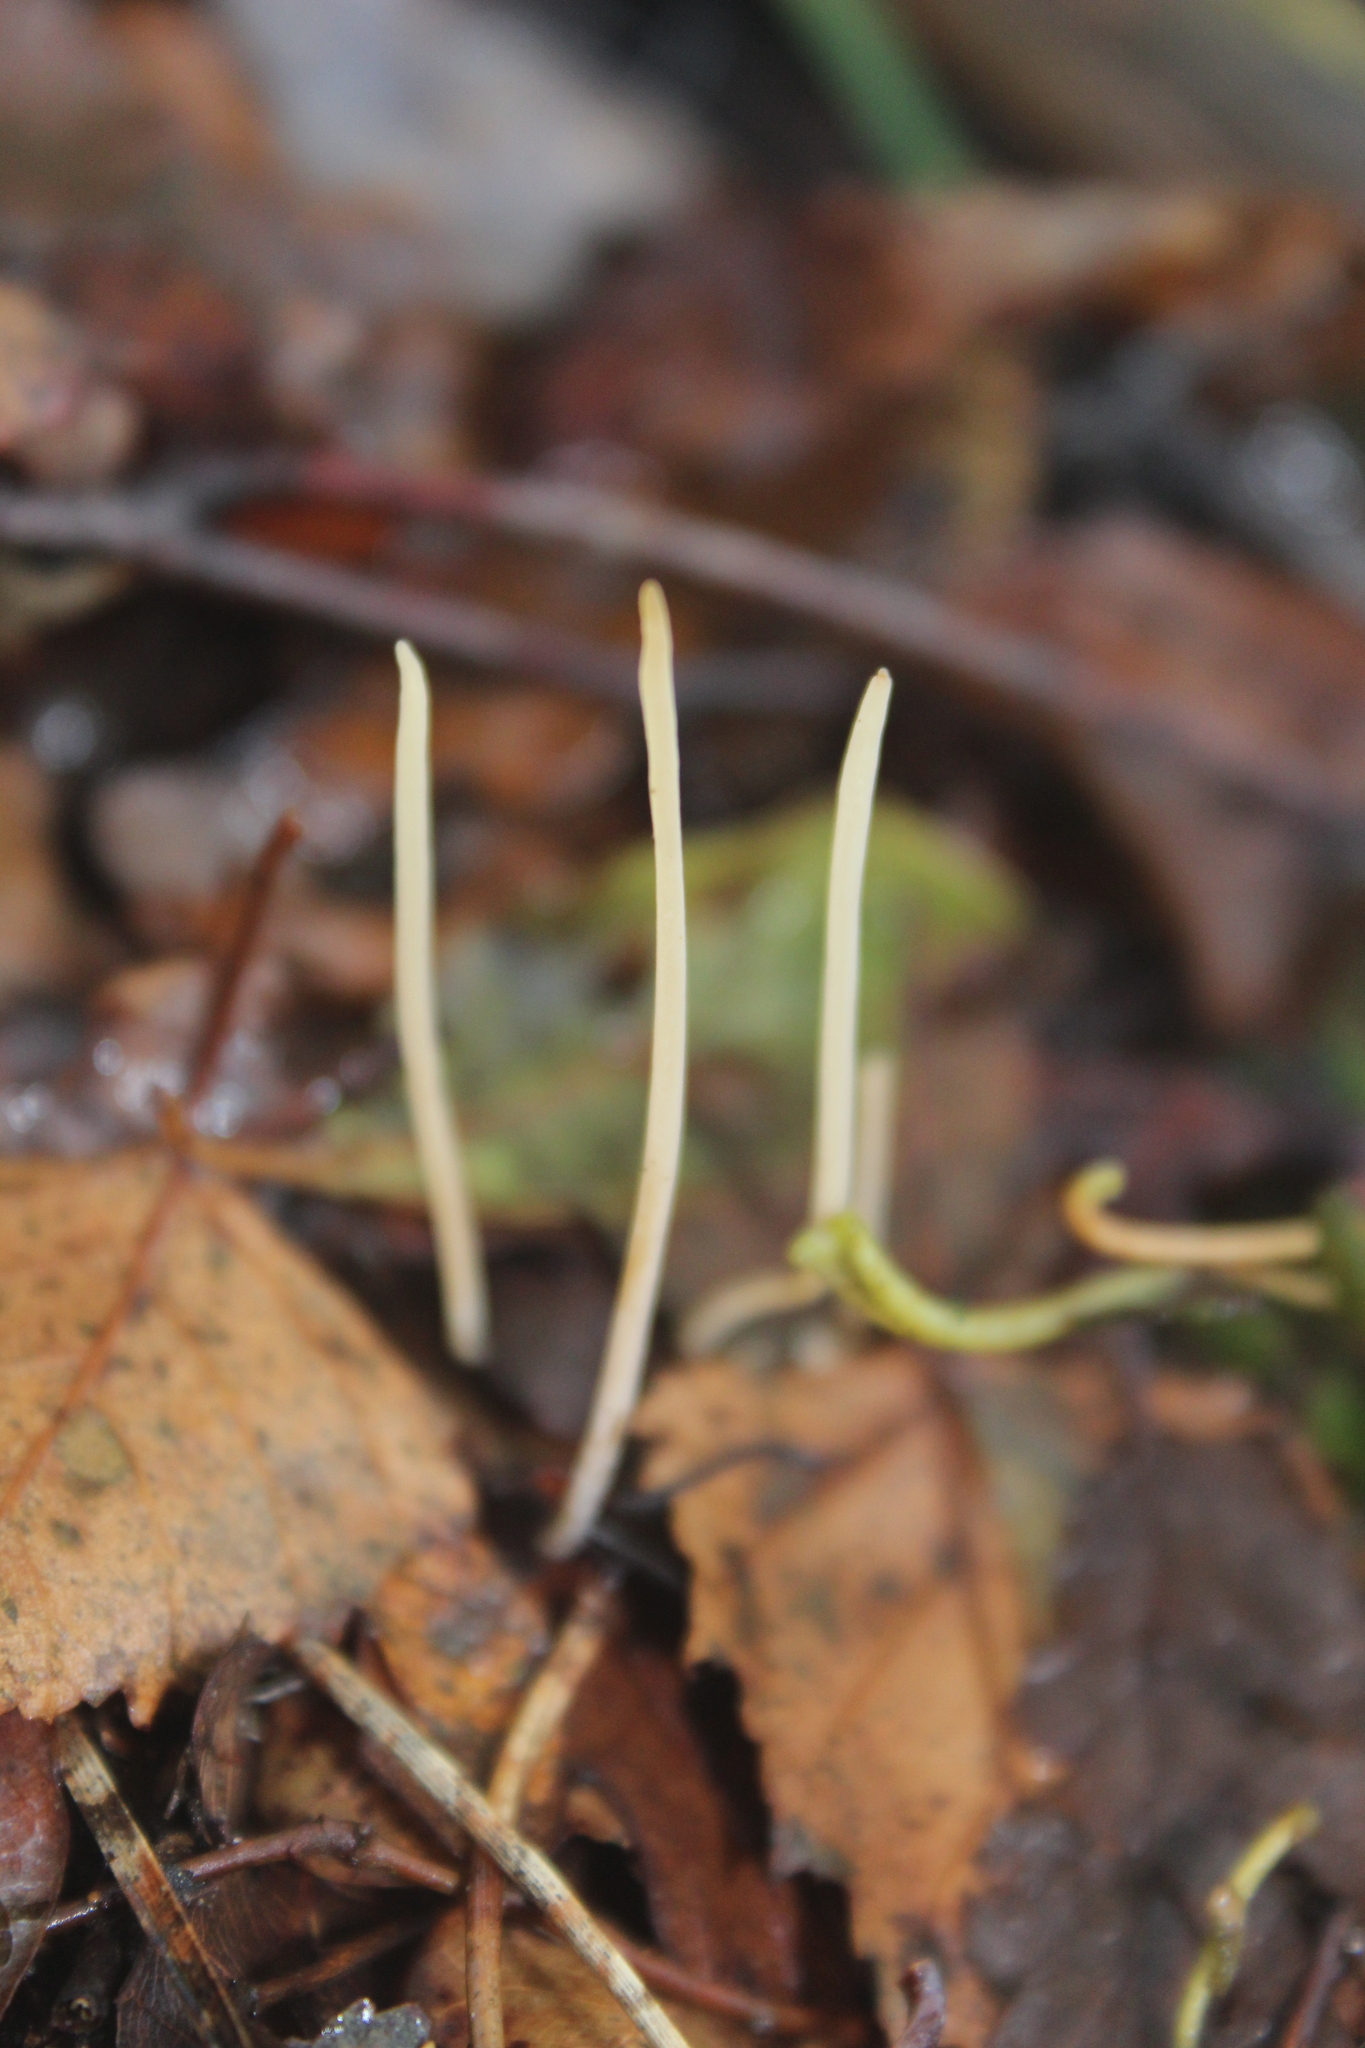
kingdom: Fungi
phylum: Basidiomycota
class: Agaricomycetes
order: Agaricales
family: Typhulaceae
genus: Typhula
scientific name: Typhula juncea
